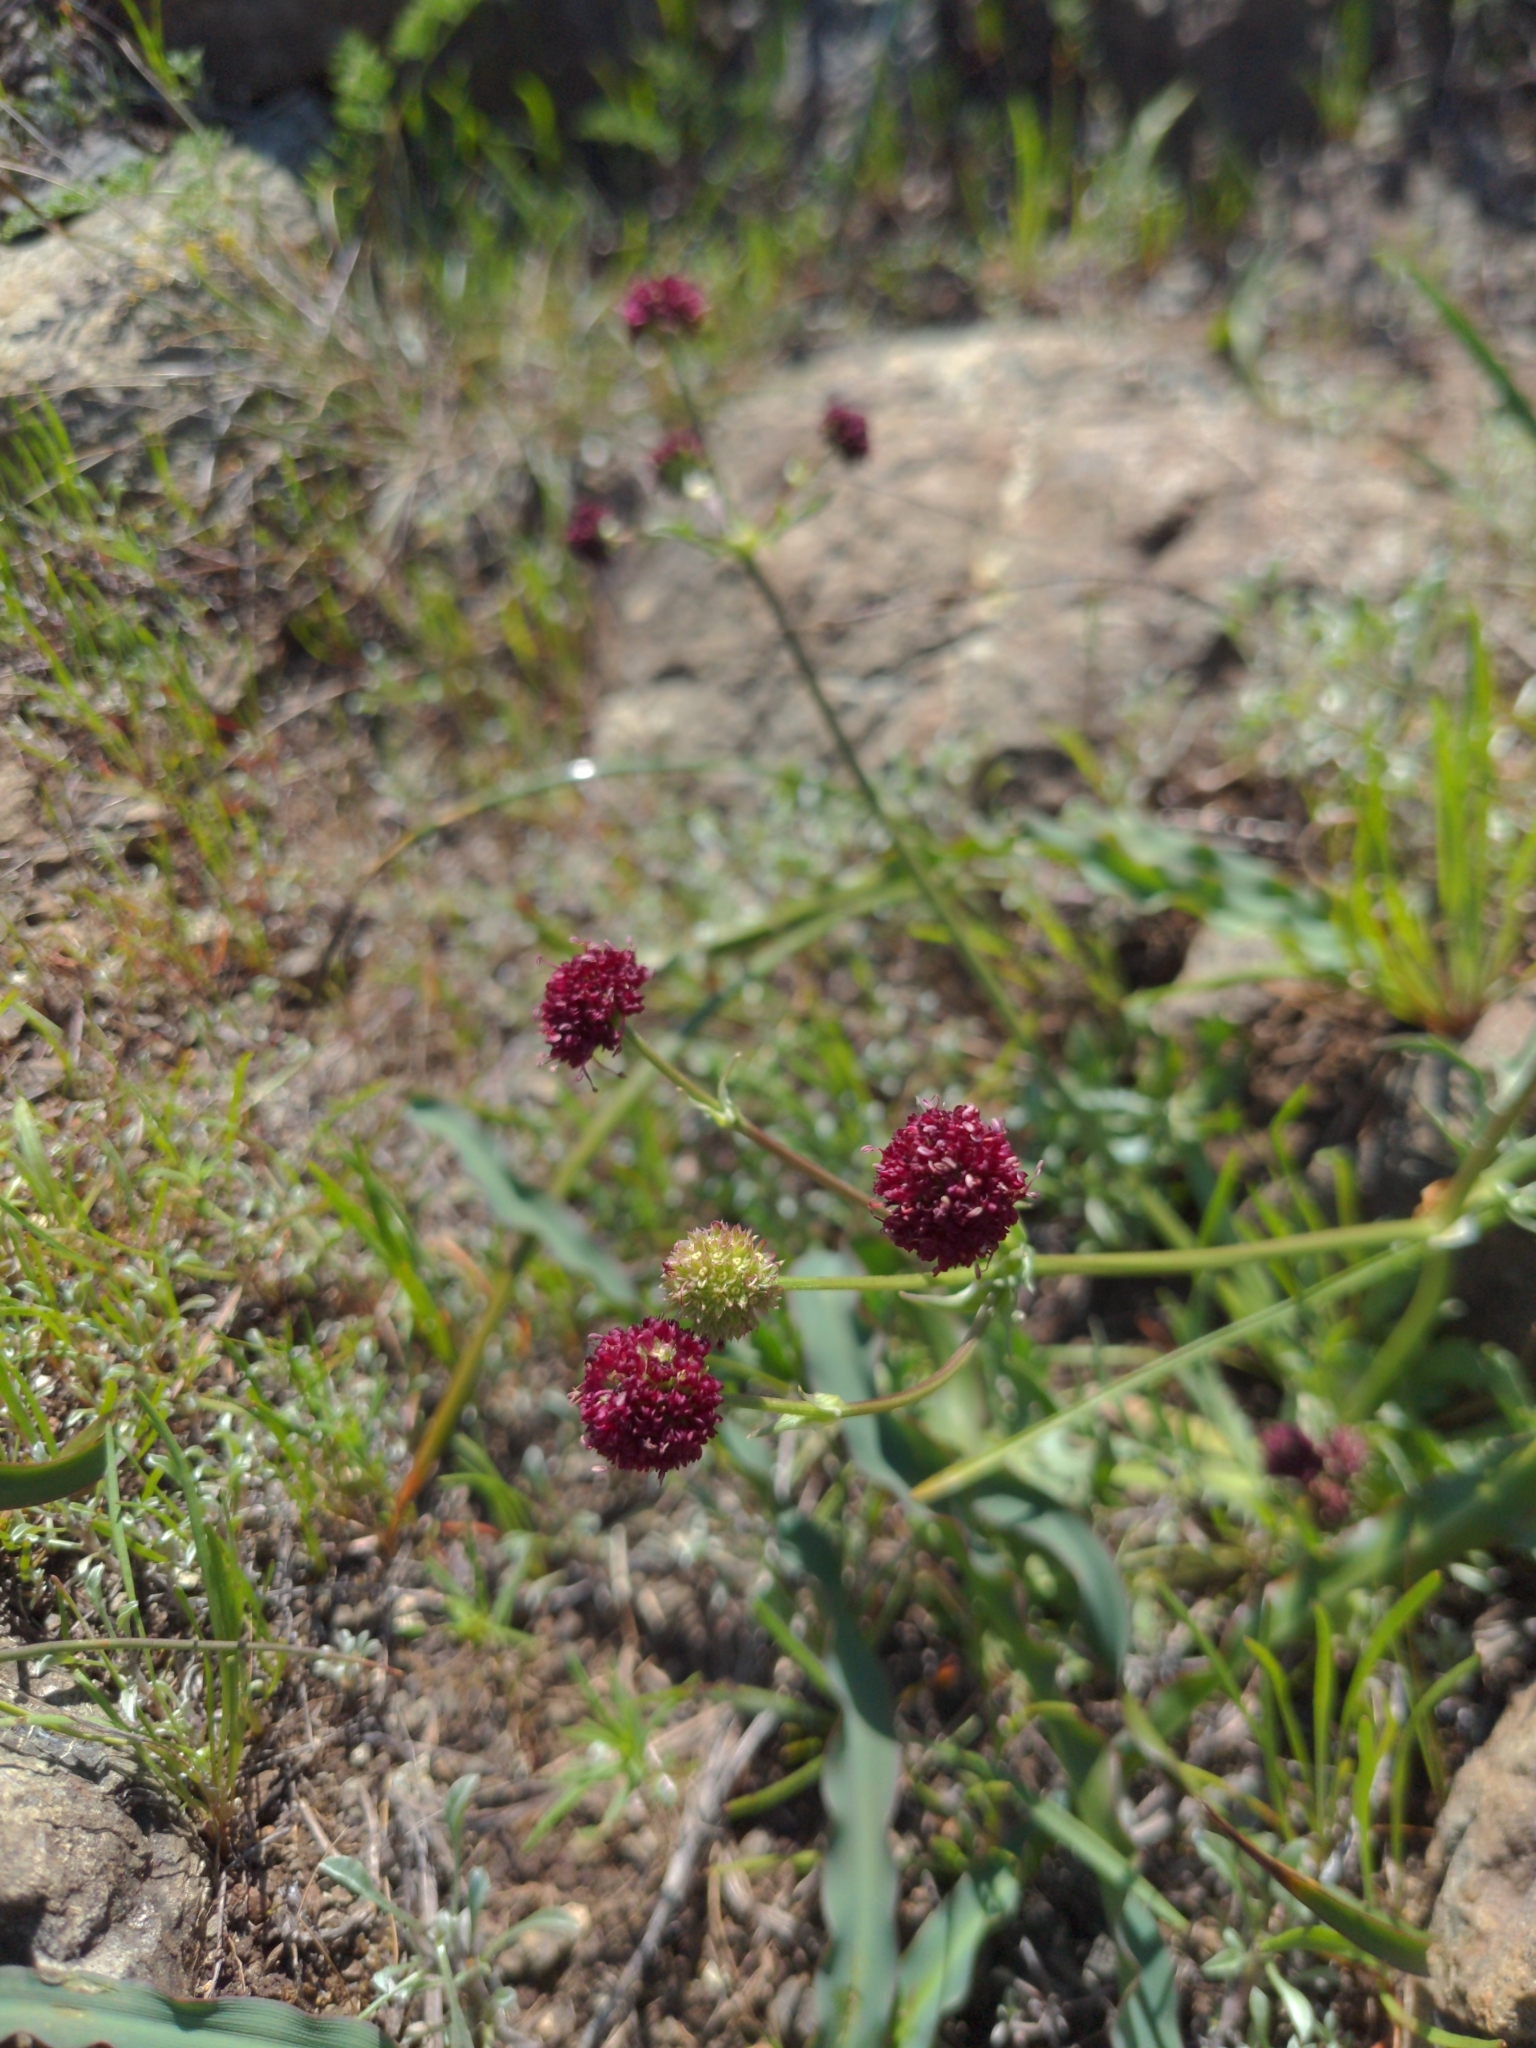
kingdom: Plantae
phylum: Tracheophyta
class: Magnoliopsida
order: Apiales
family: Apiaceae
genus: Sanicula
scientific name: Sanicula bipinnatifida
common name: Shoe-buttons
